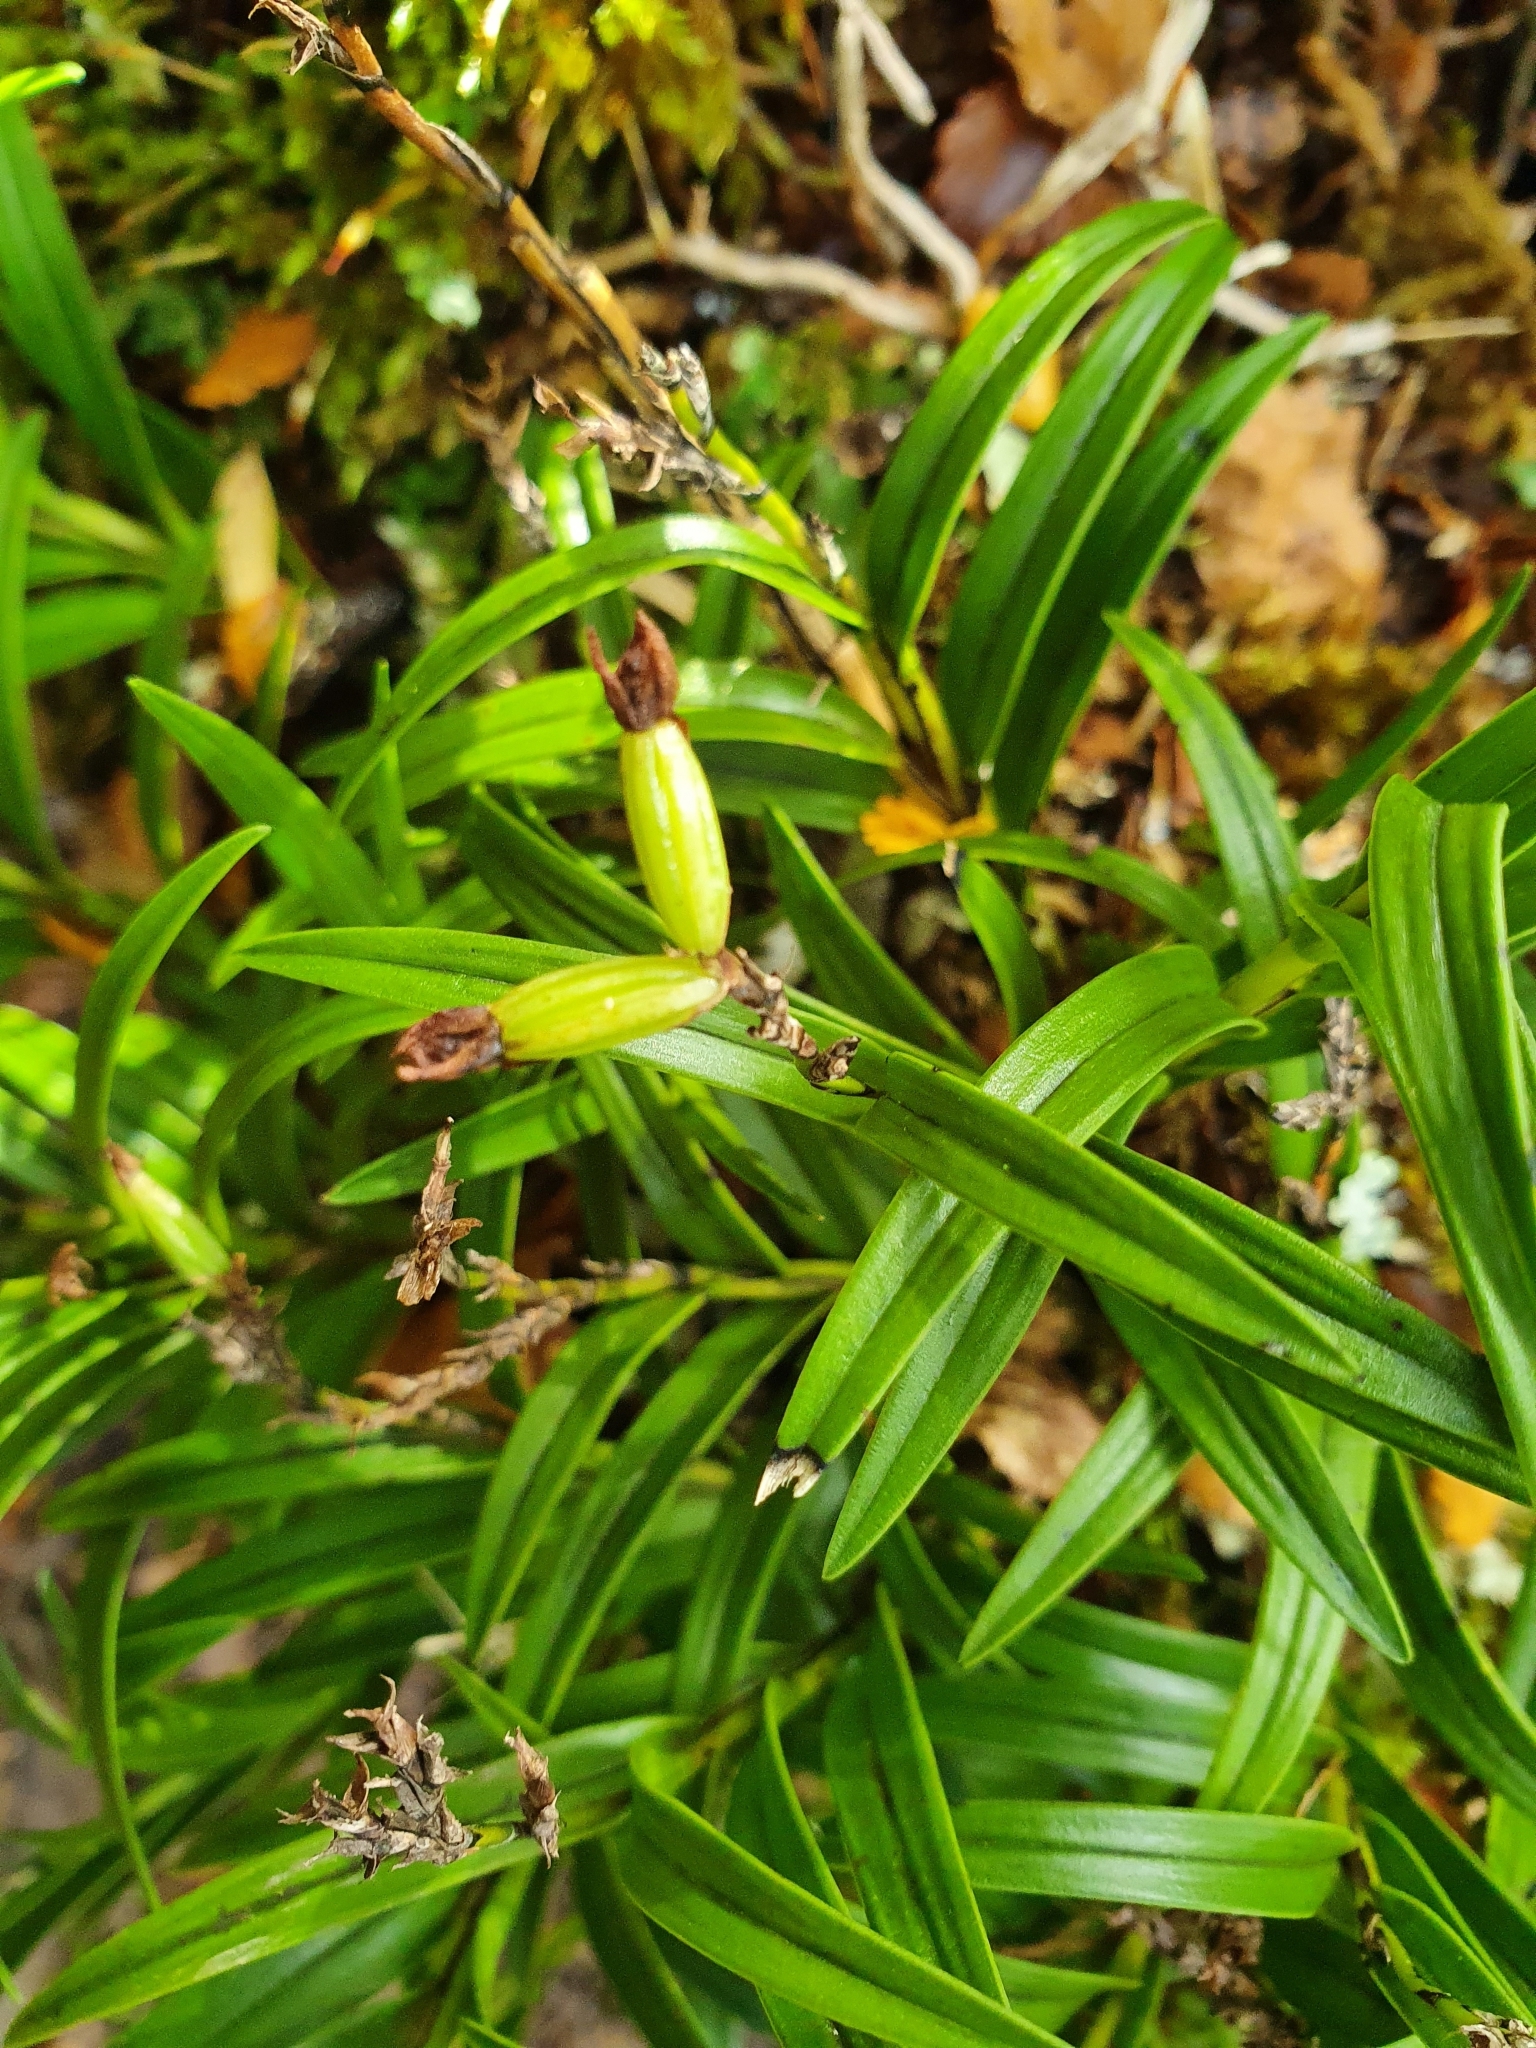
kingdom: Plantae
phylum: Tracheophyta
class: Liliopsida
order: Asparagales
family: Orchidaceae
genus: Earina
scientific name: Earina autumnalis
